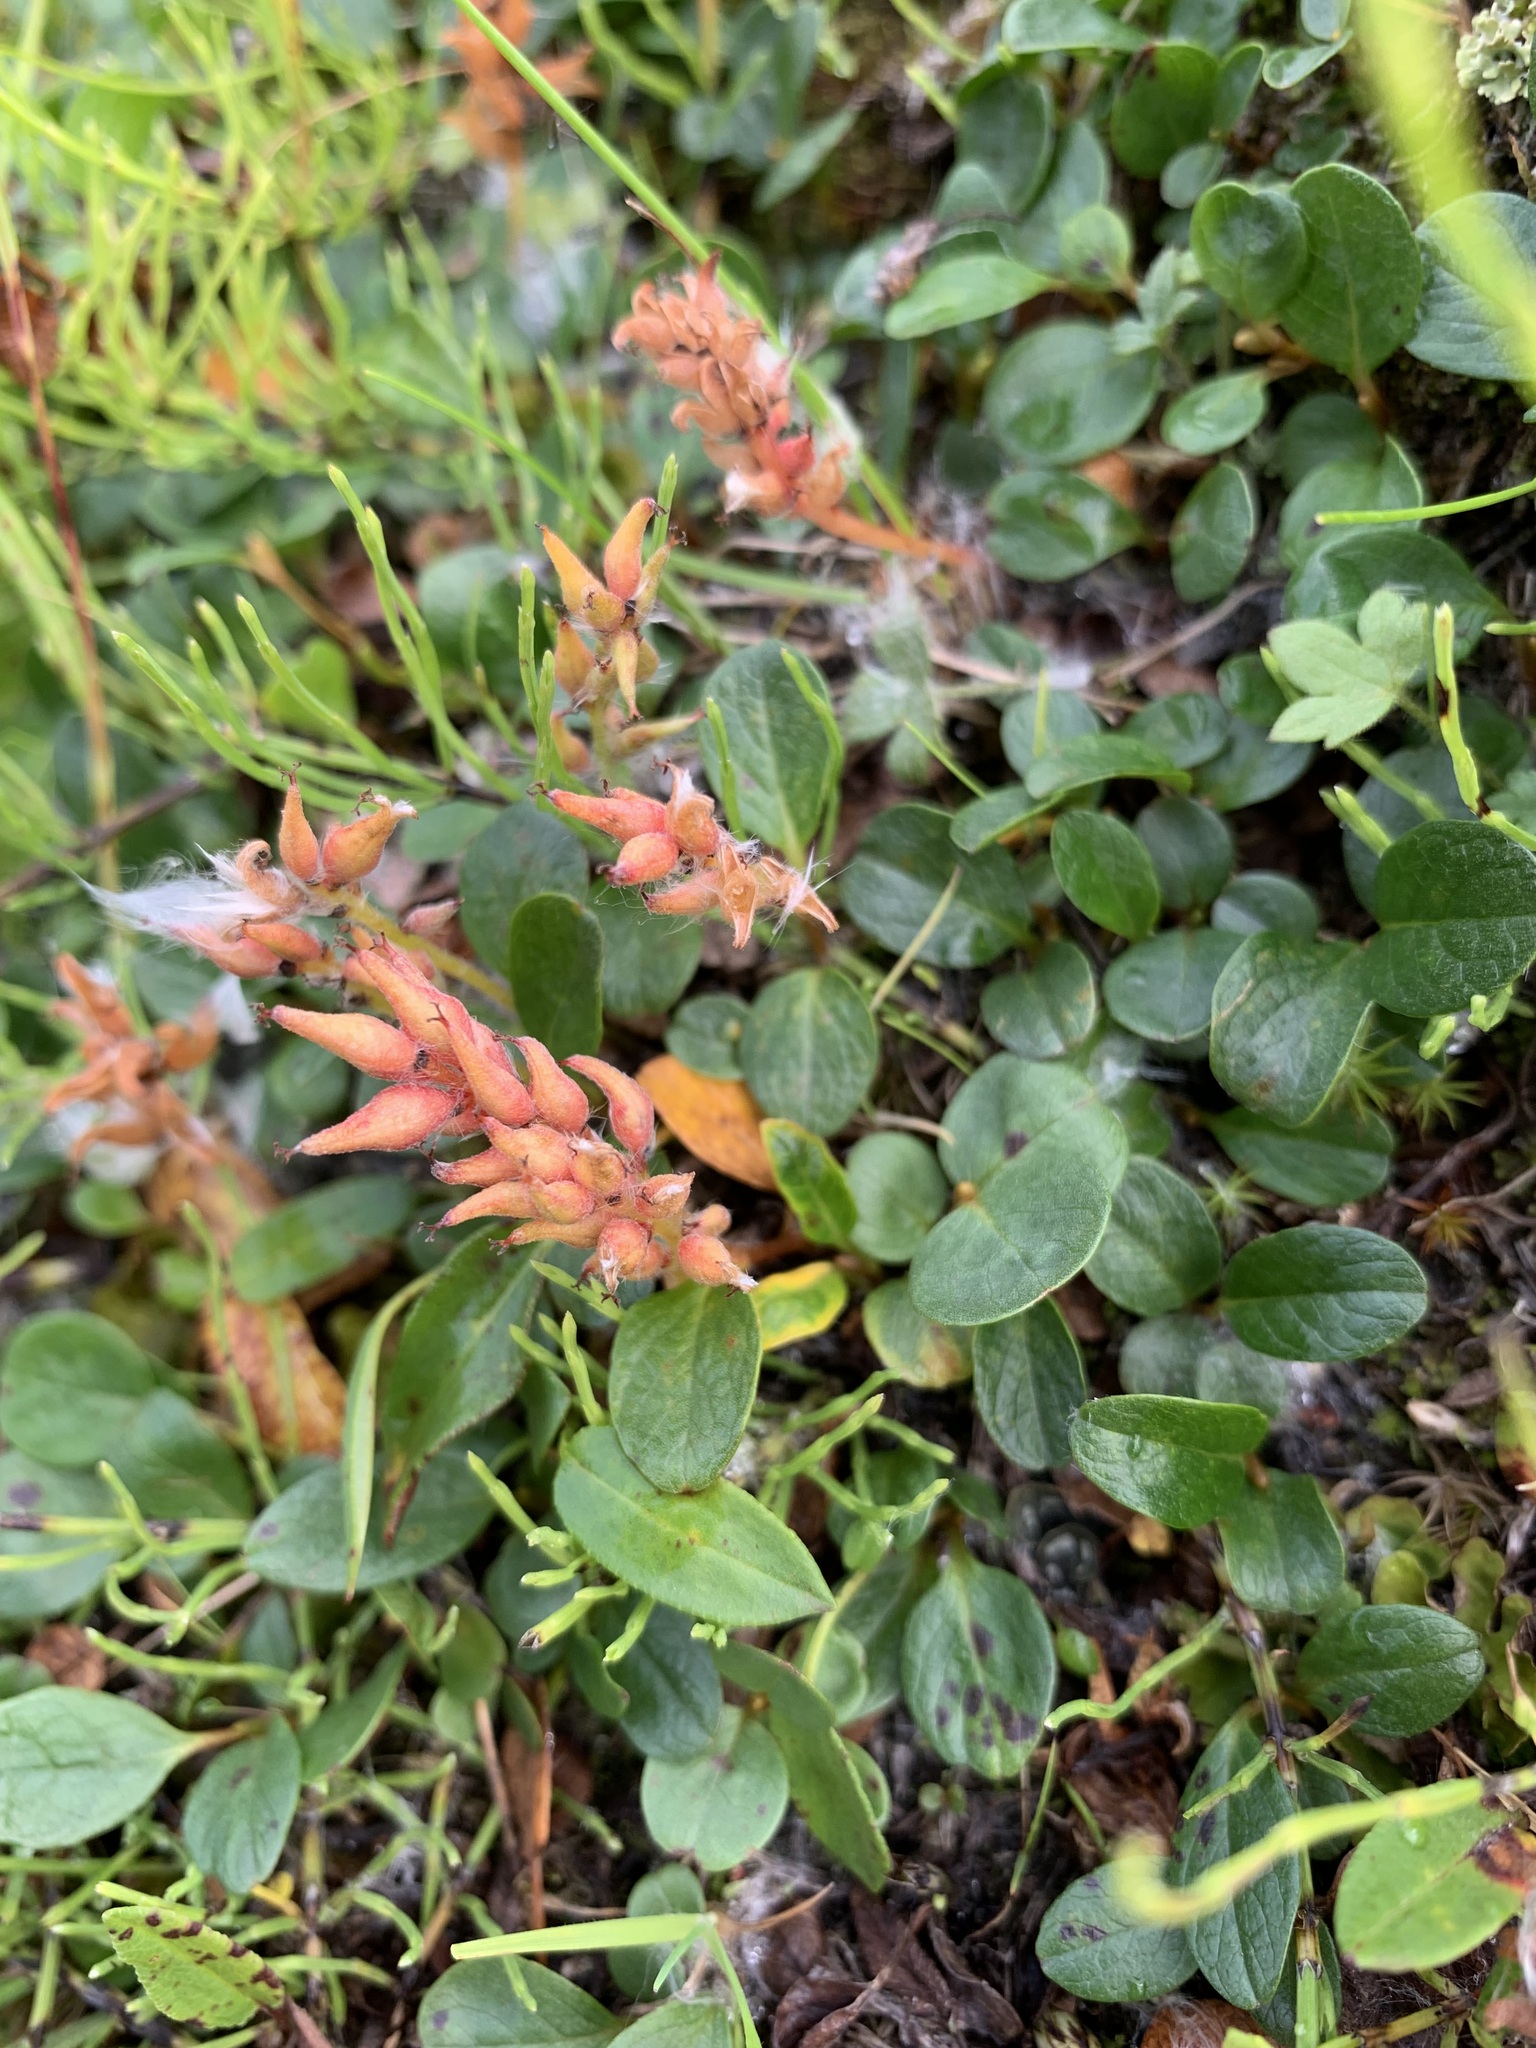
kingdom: Plantae
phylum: Tracheophyta
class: Magnoliopsida
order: Malpighiales
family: Salicaceae
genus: Salix
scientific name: Salix polaris
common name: Polar willow
